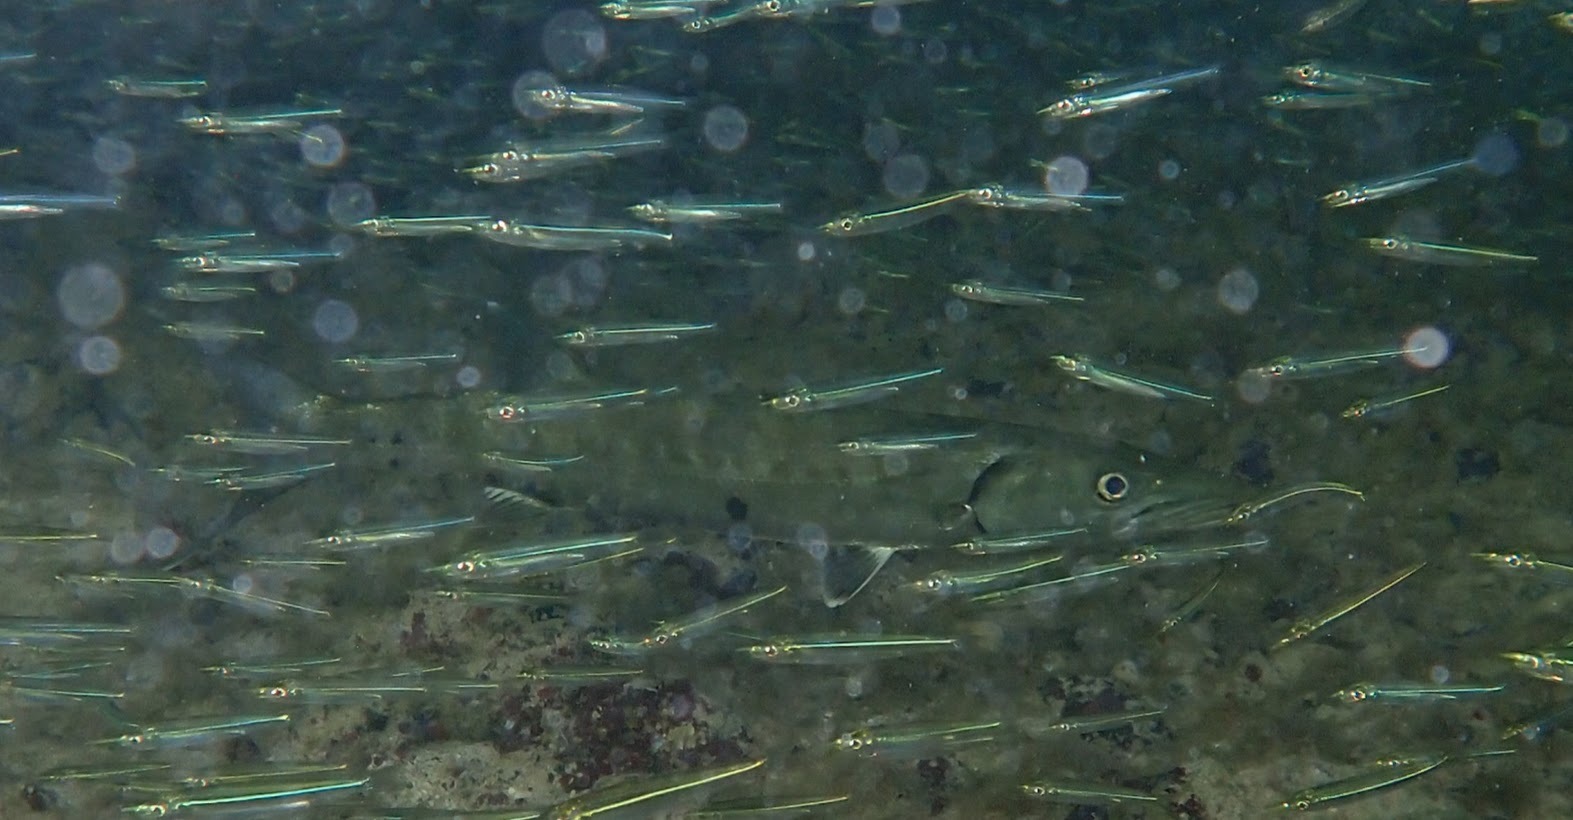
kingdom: Animalia
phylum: Chordata
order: Perciformes
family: Sphyraenidae
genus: Sphyraena
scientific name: Sphyraena barracuda
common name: Great barracuda
